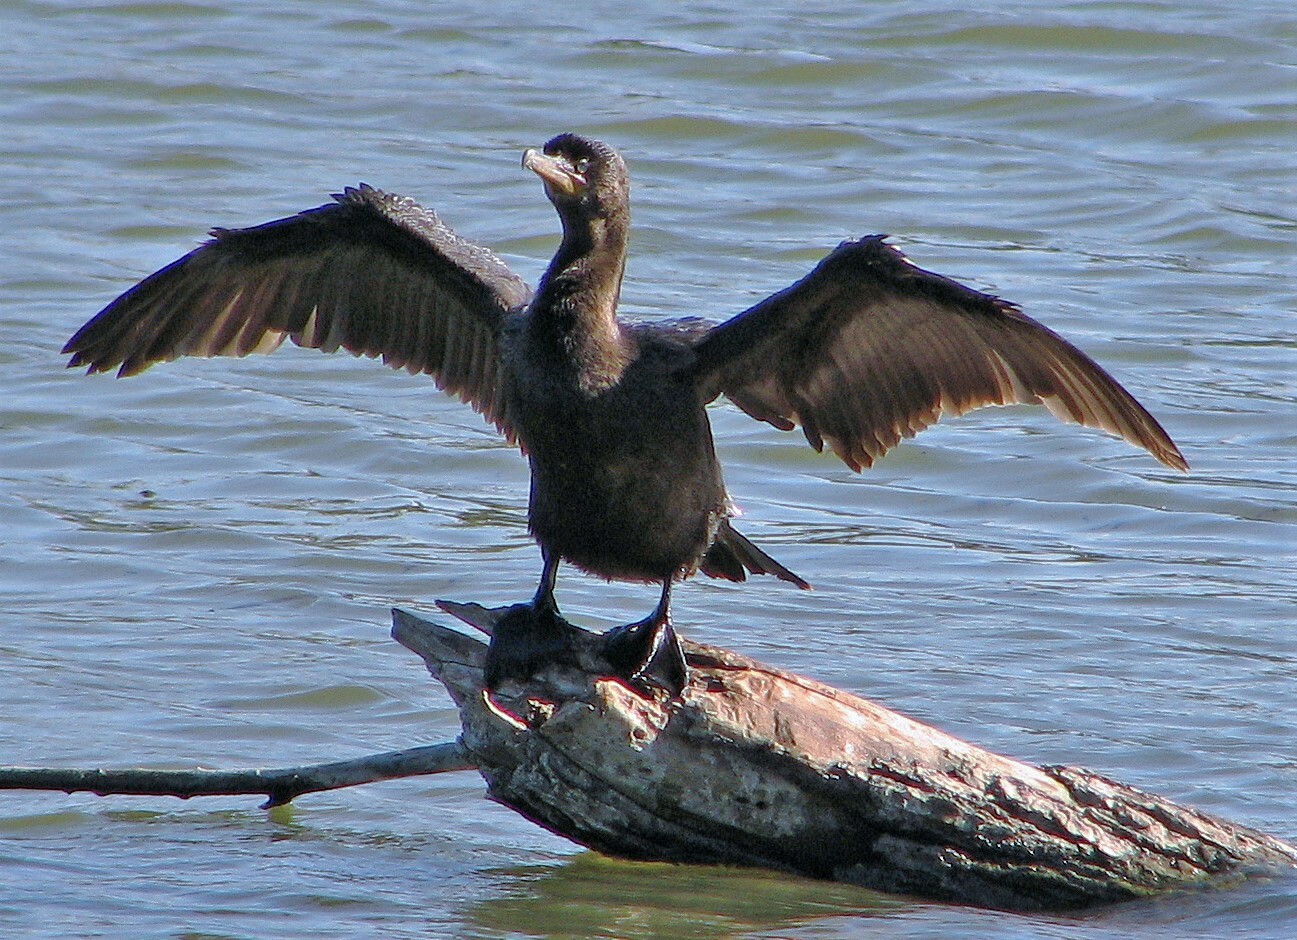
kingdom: Animalia
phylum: Chordata
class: Aves
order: Suliformes
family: Phalacrocoracidae
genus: Phalacrocorax
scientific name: Phalacrocorax brasilianus
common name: Neotropic cormorant
